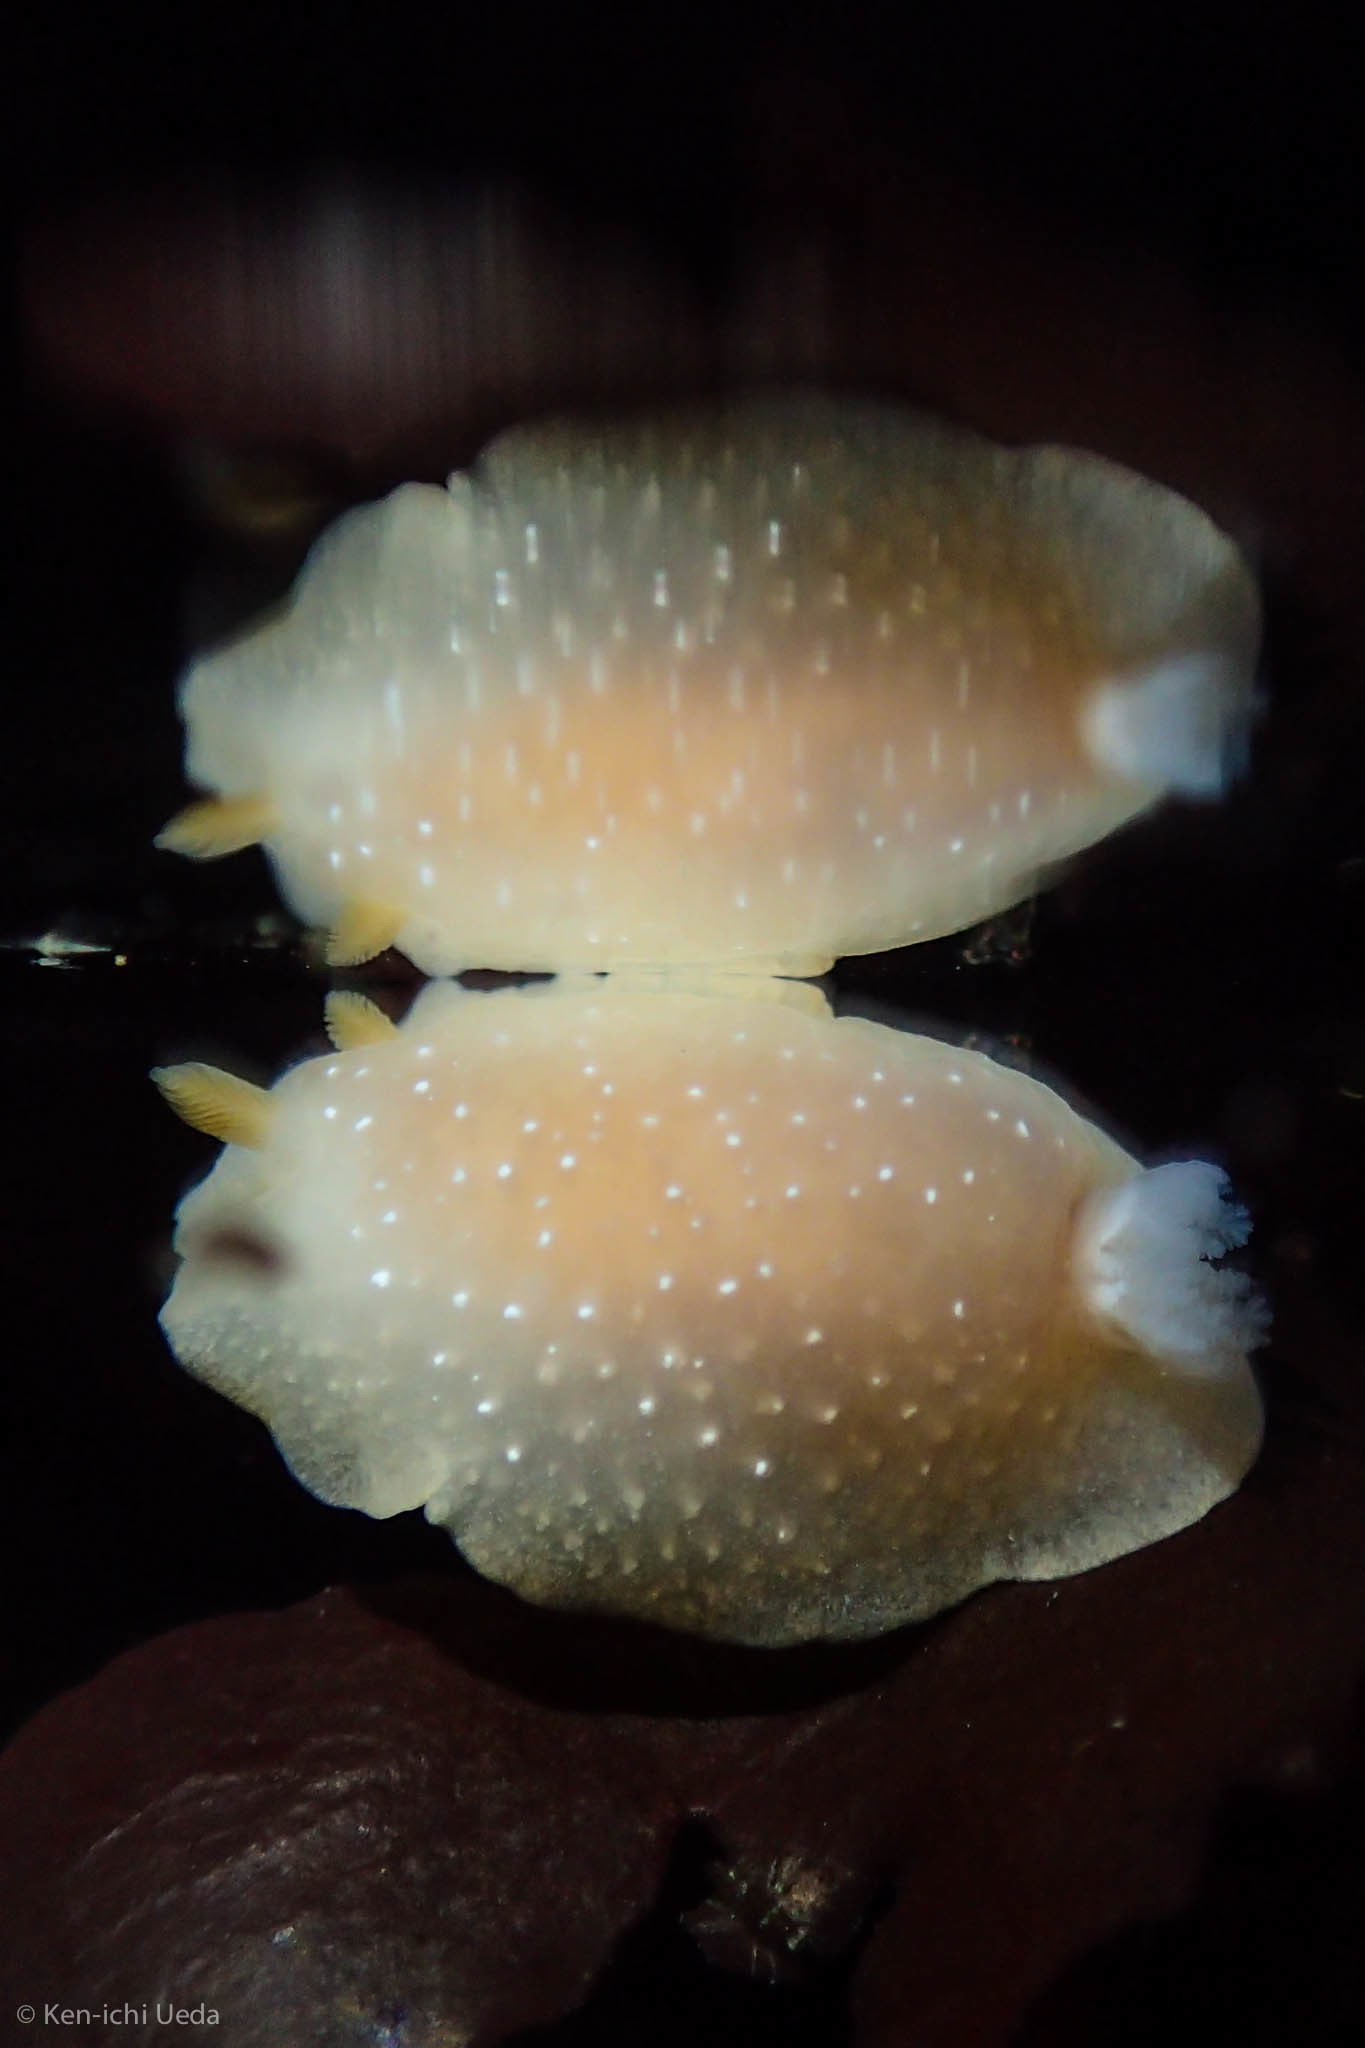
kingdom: Animalia
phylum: Mollusca
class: Gastropoda
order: Nudibranchia
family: Dendrodorididae
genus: Doriopsilla
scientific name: Doriopsilla fulva
